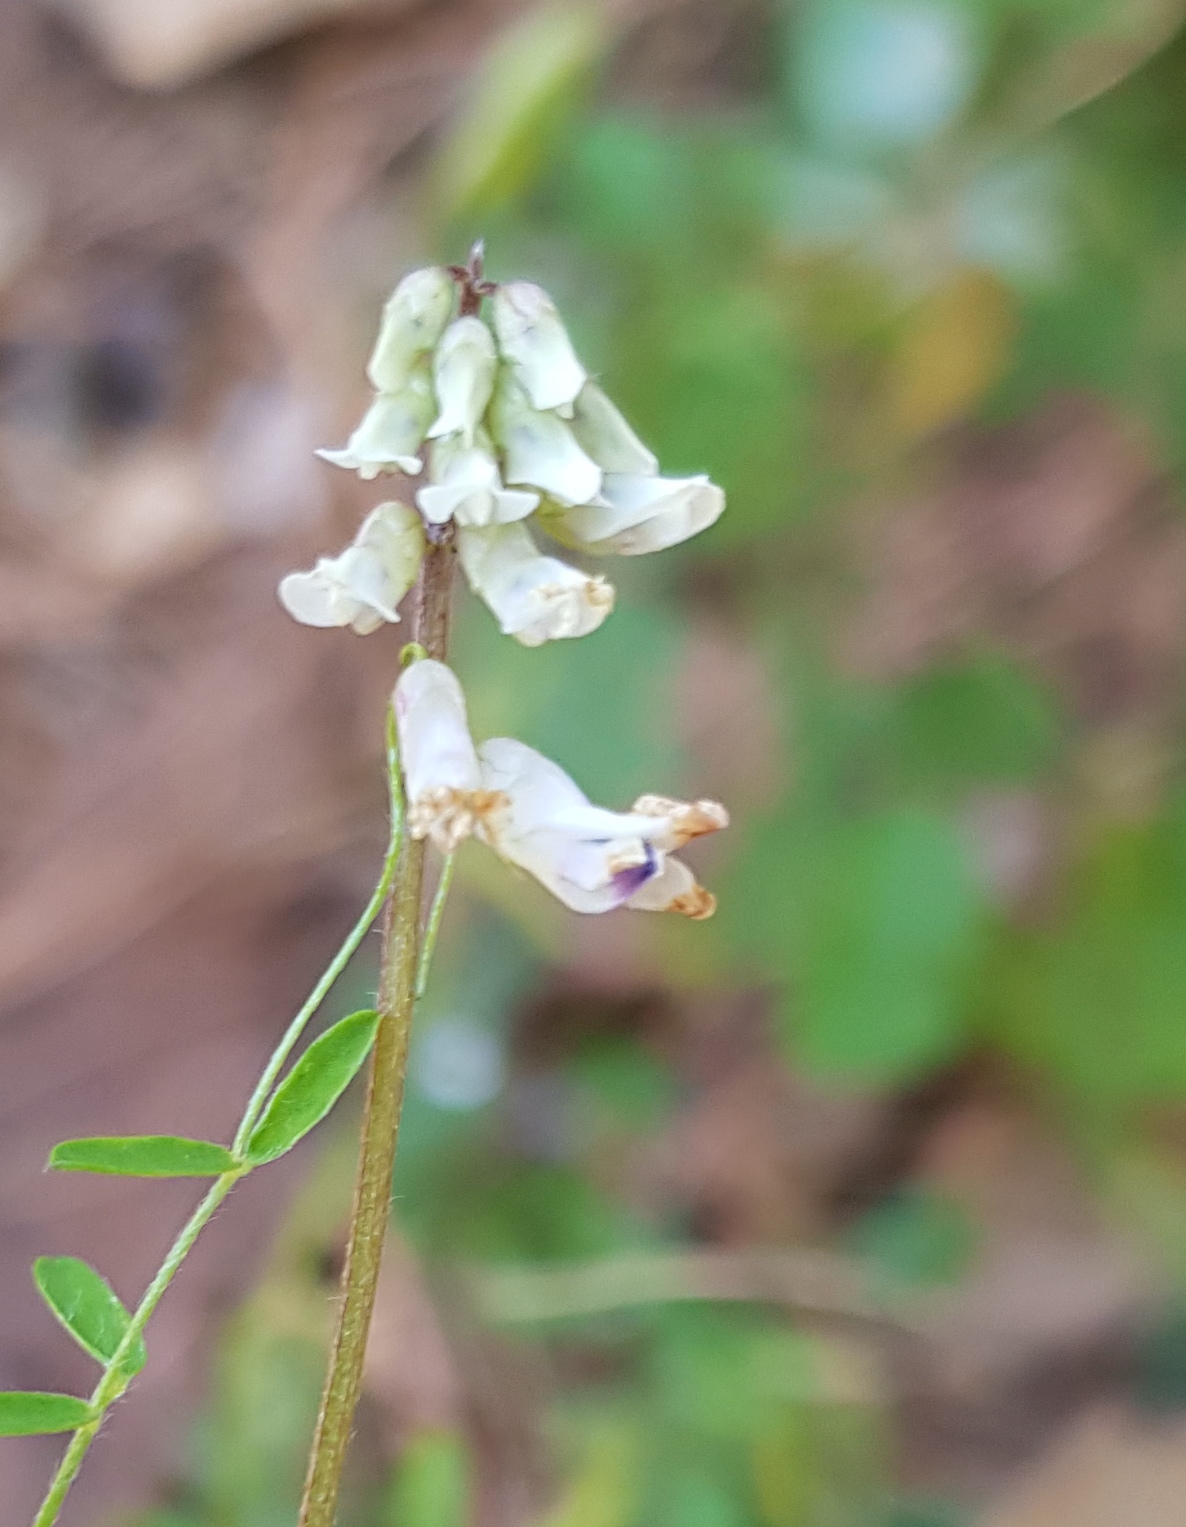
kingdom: Plantae
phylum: Tracheophyta
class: Magnoliopsida
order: Fabales
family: Fabaceae
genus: Vicia
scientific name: Vicia pulchella
